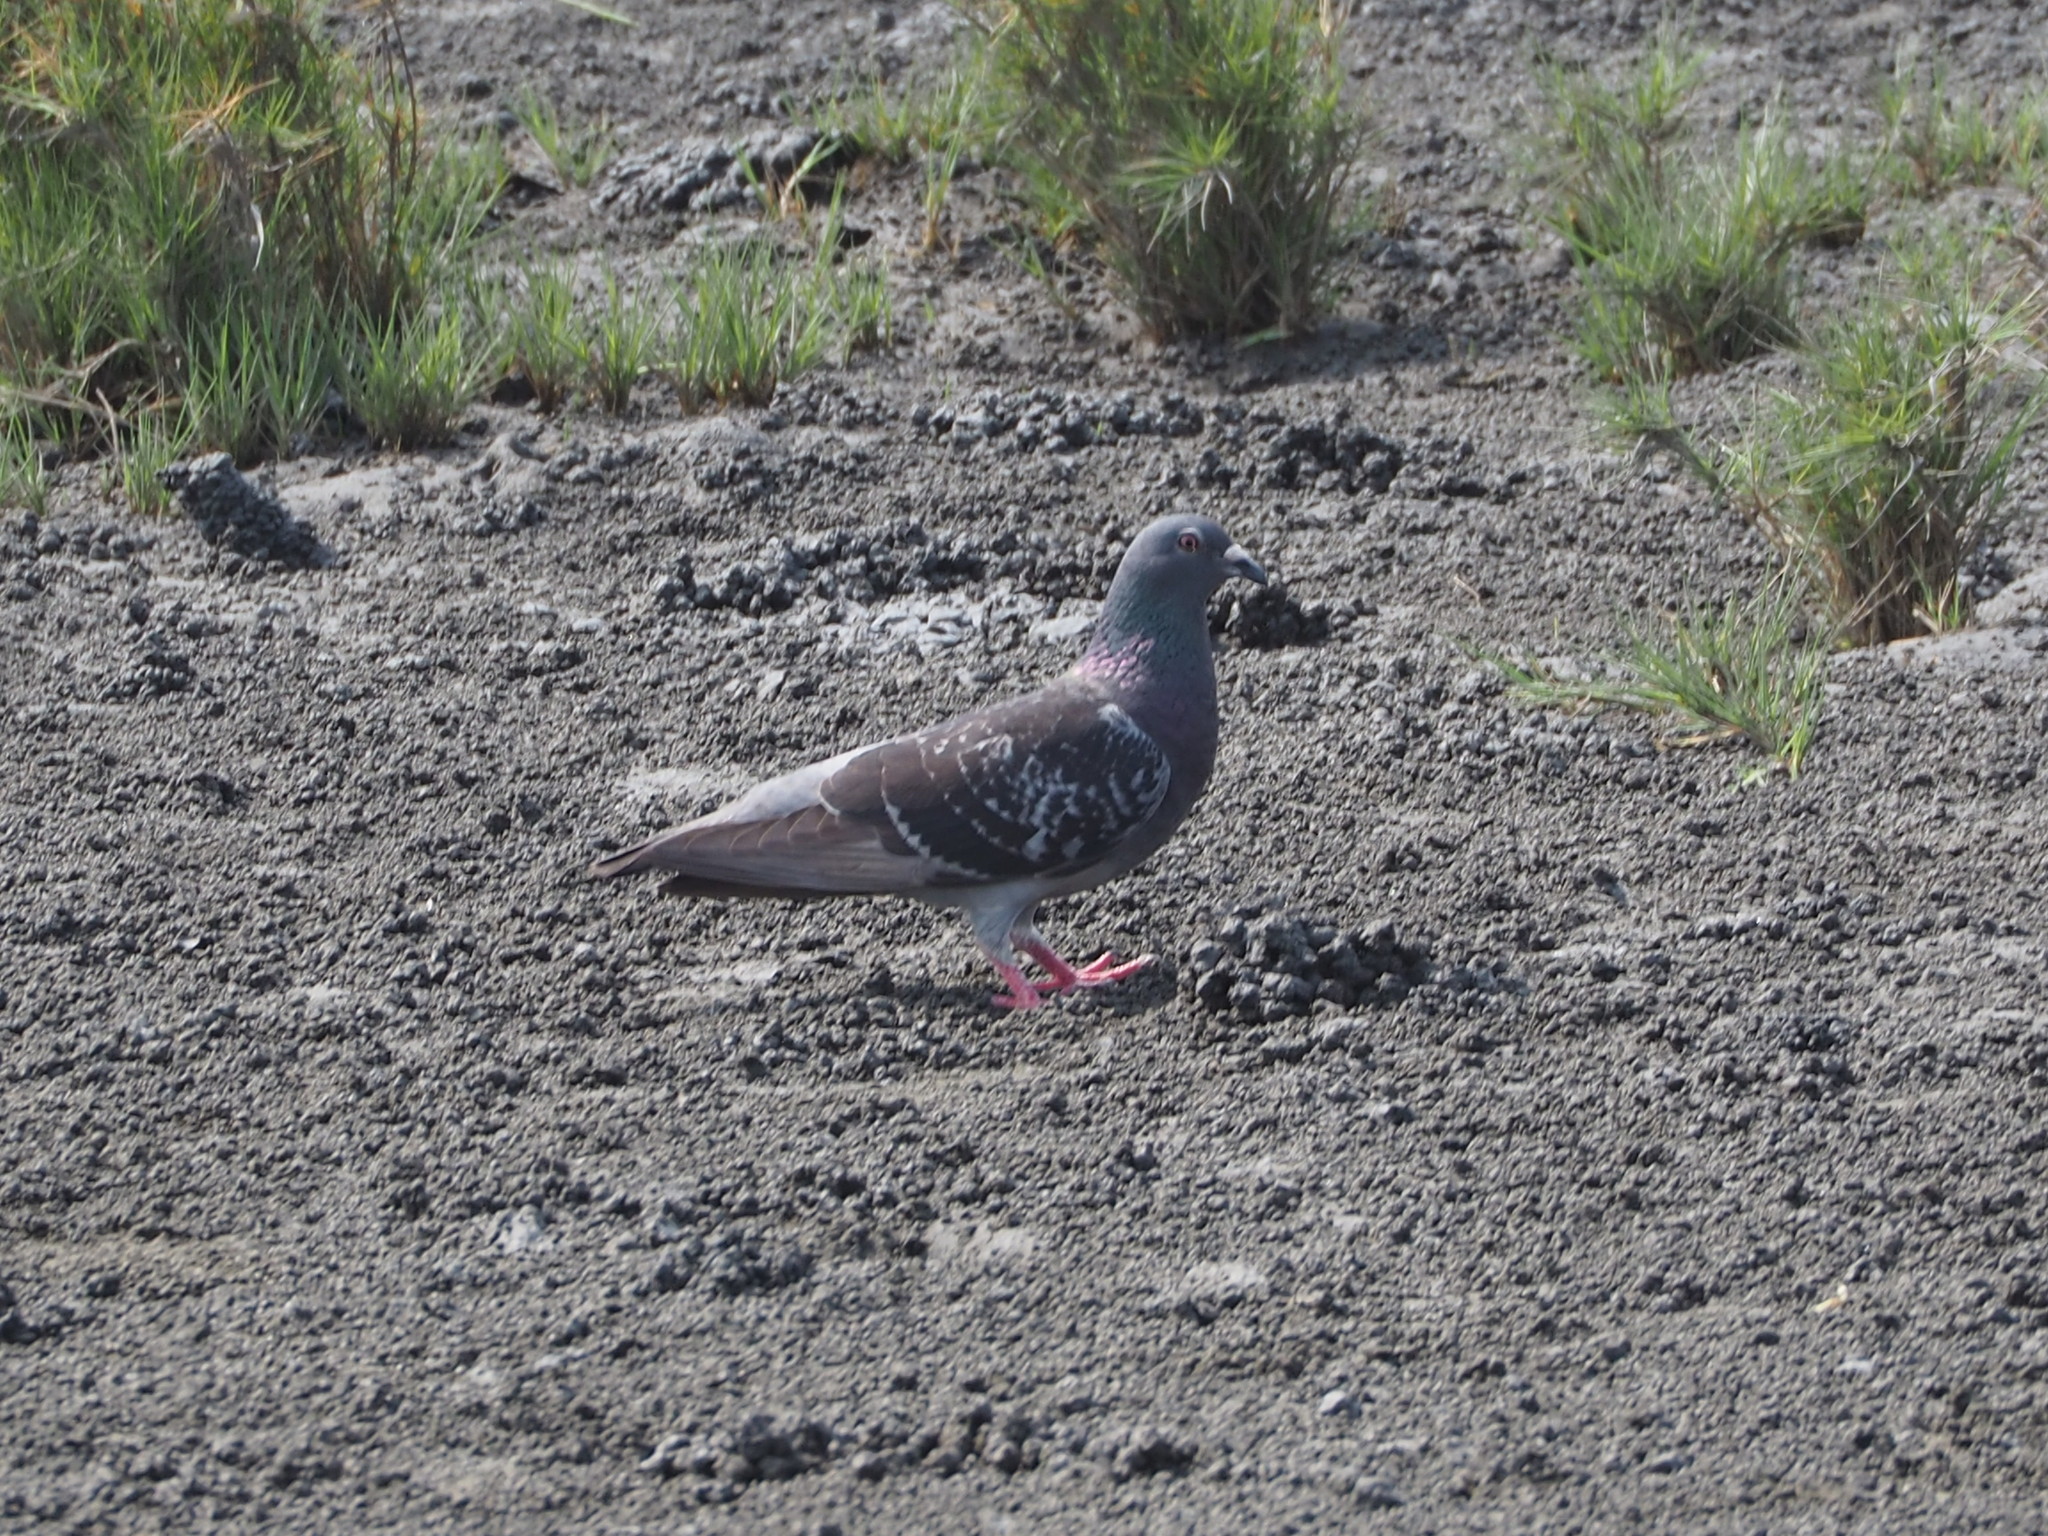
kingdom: Animalia
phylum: Chordata
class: Aves
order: Columbiformes
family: Columbidae
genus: Columba
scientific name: Columba livia
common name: Rock pigeon
